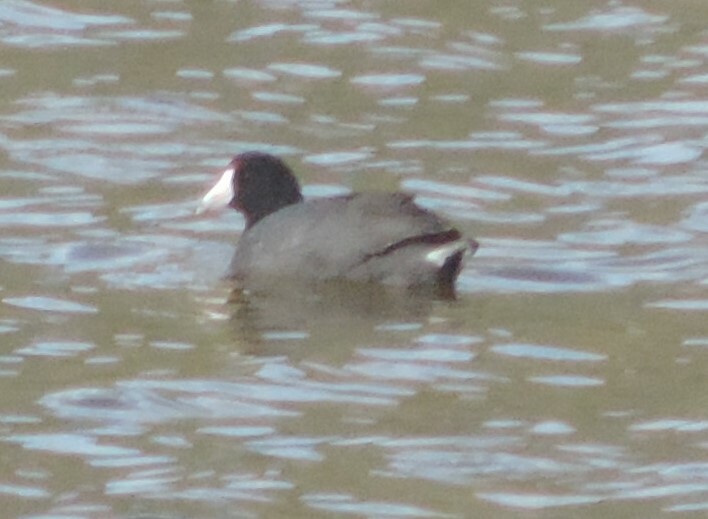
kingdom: Animalia
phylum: Chordata
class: Aves
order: Gruiformes
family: Rallidae
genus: Fulica
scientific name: Fulica americana
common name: American coot
